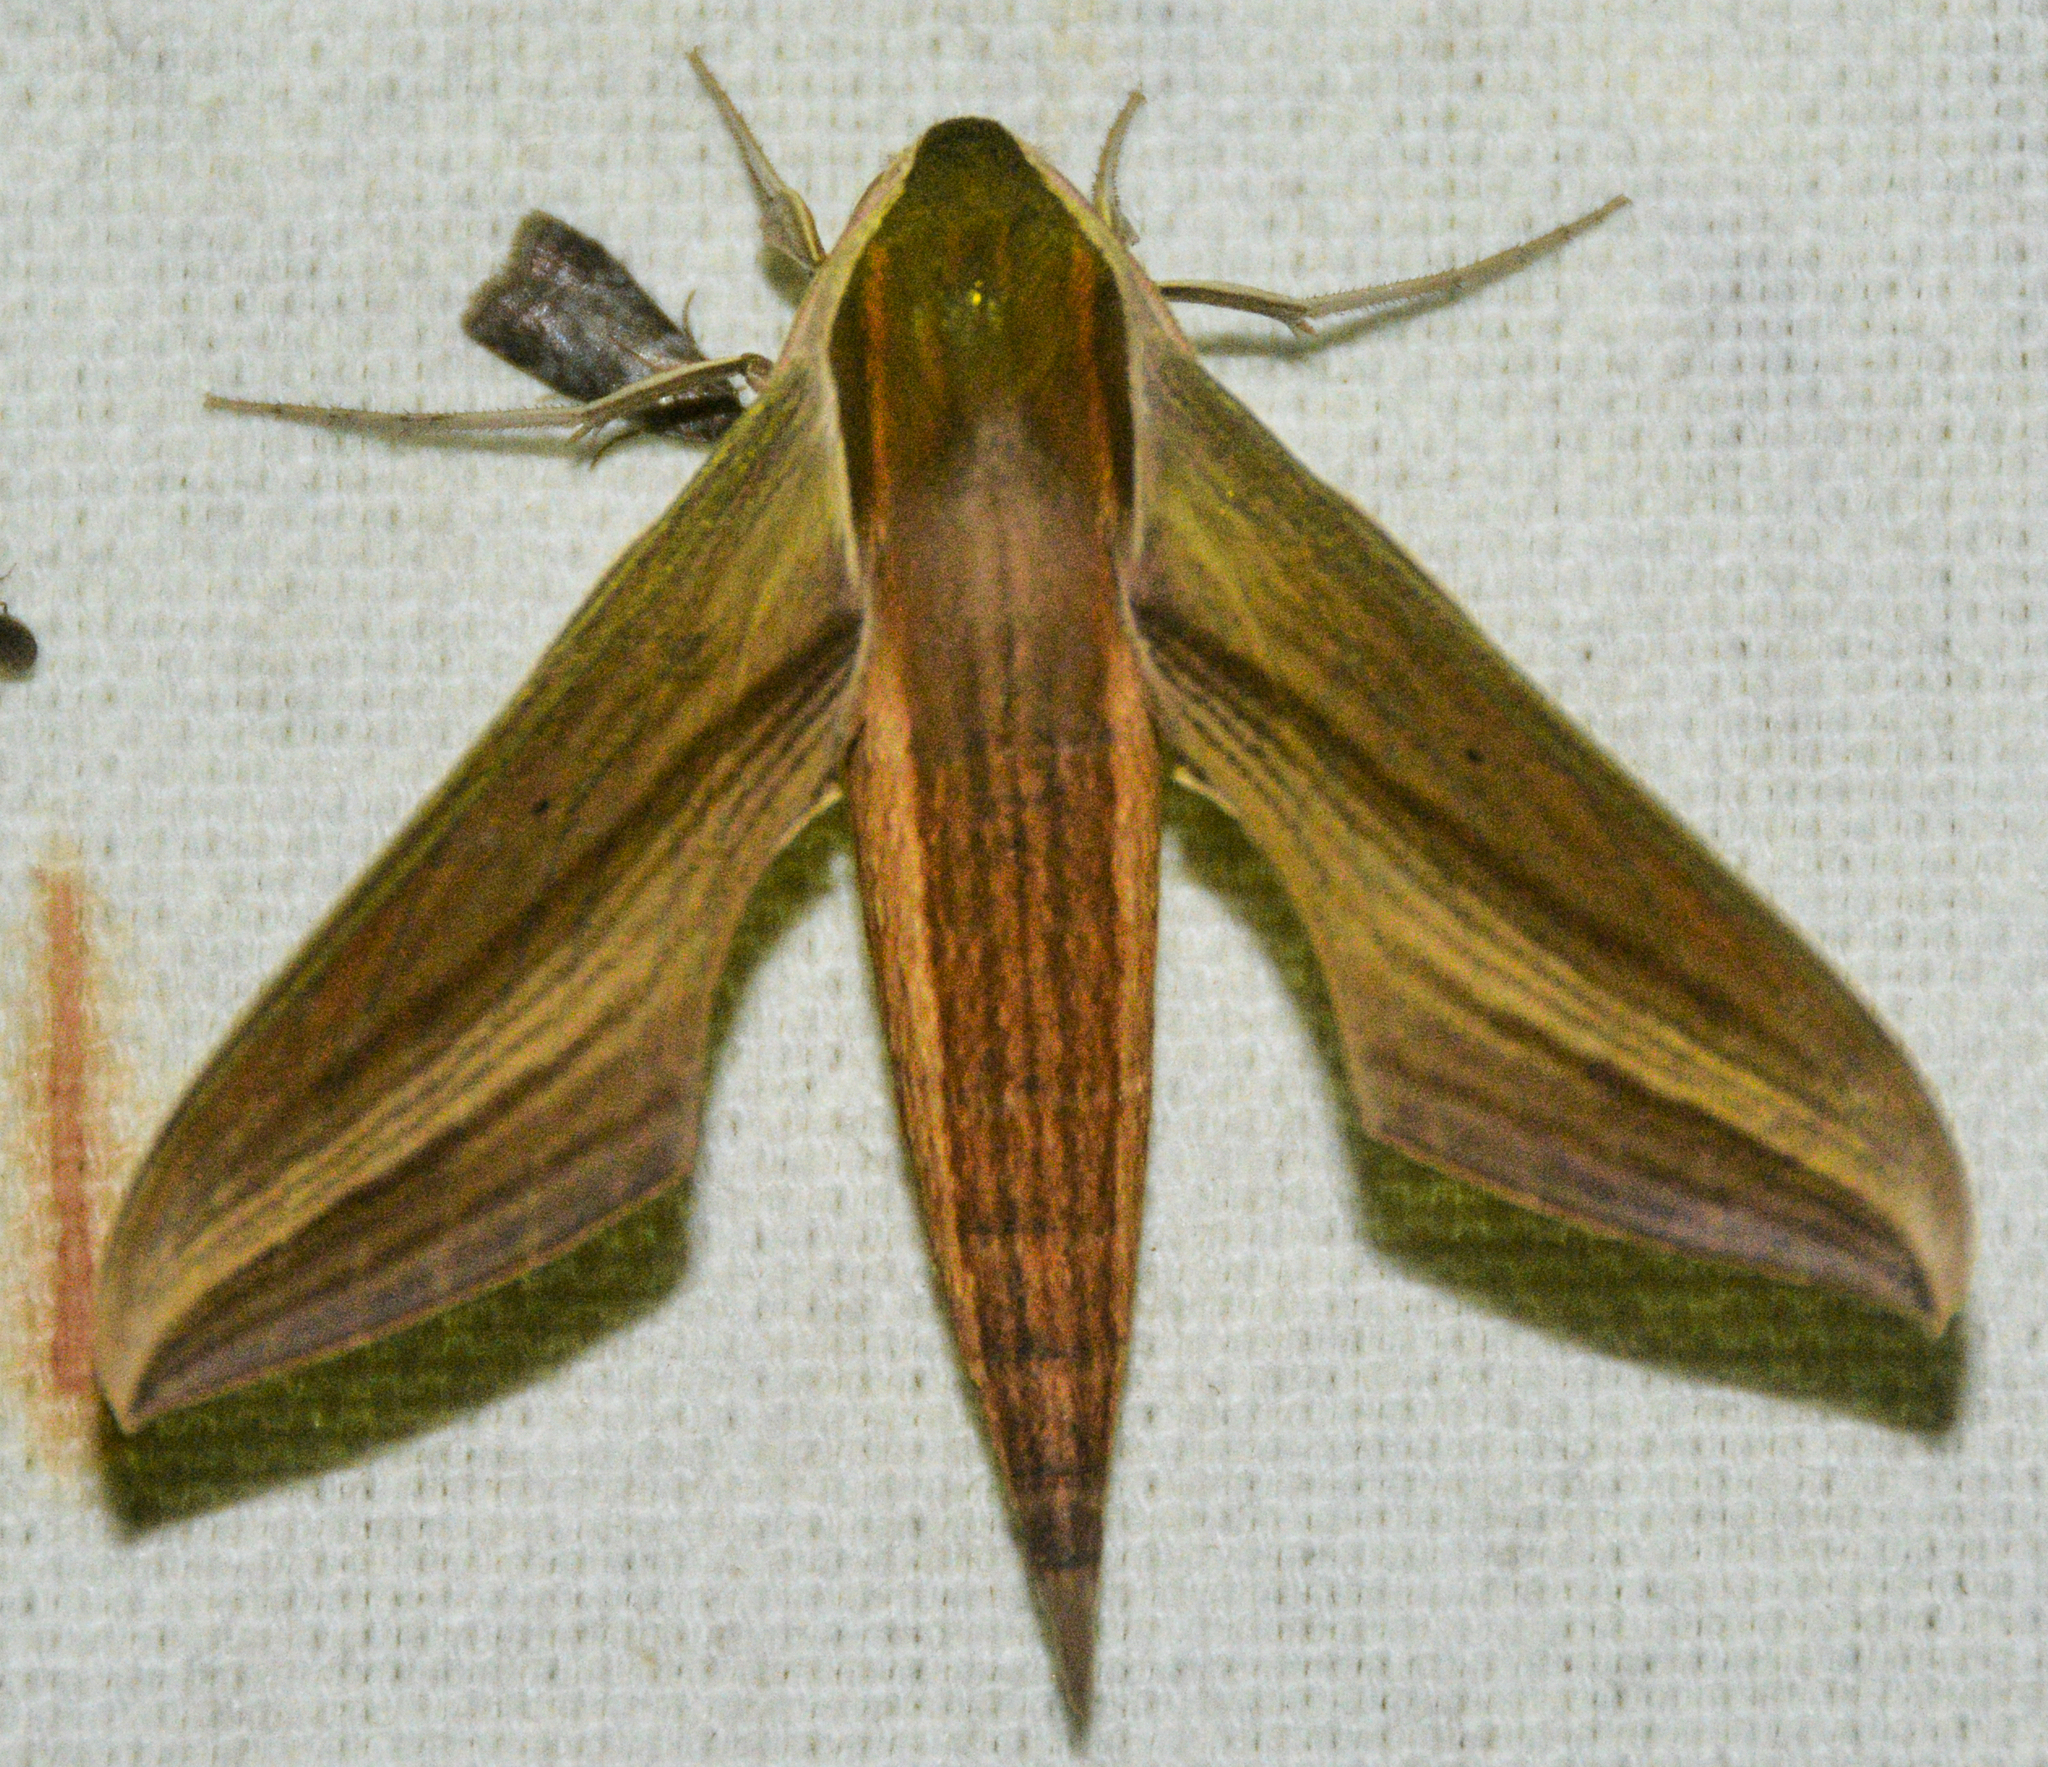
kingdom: Animalia
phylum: Arthropoda
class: Insecta
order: Lepidoptera
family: Sphingidae
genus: Xylophanes
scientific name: Xylophanes tersa
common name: Tersa sphinx
